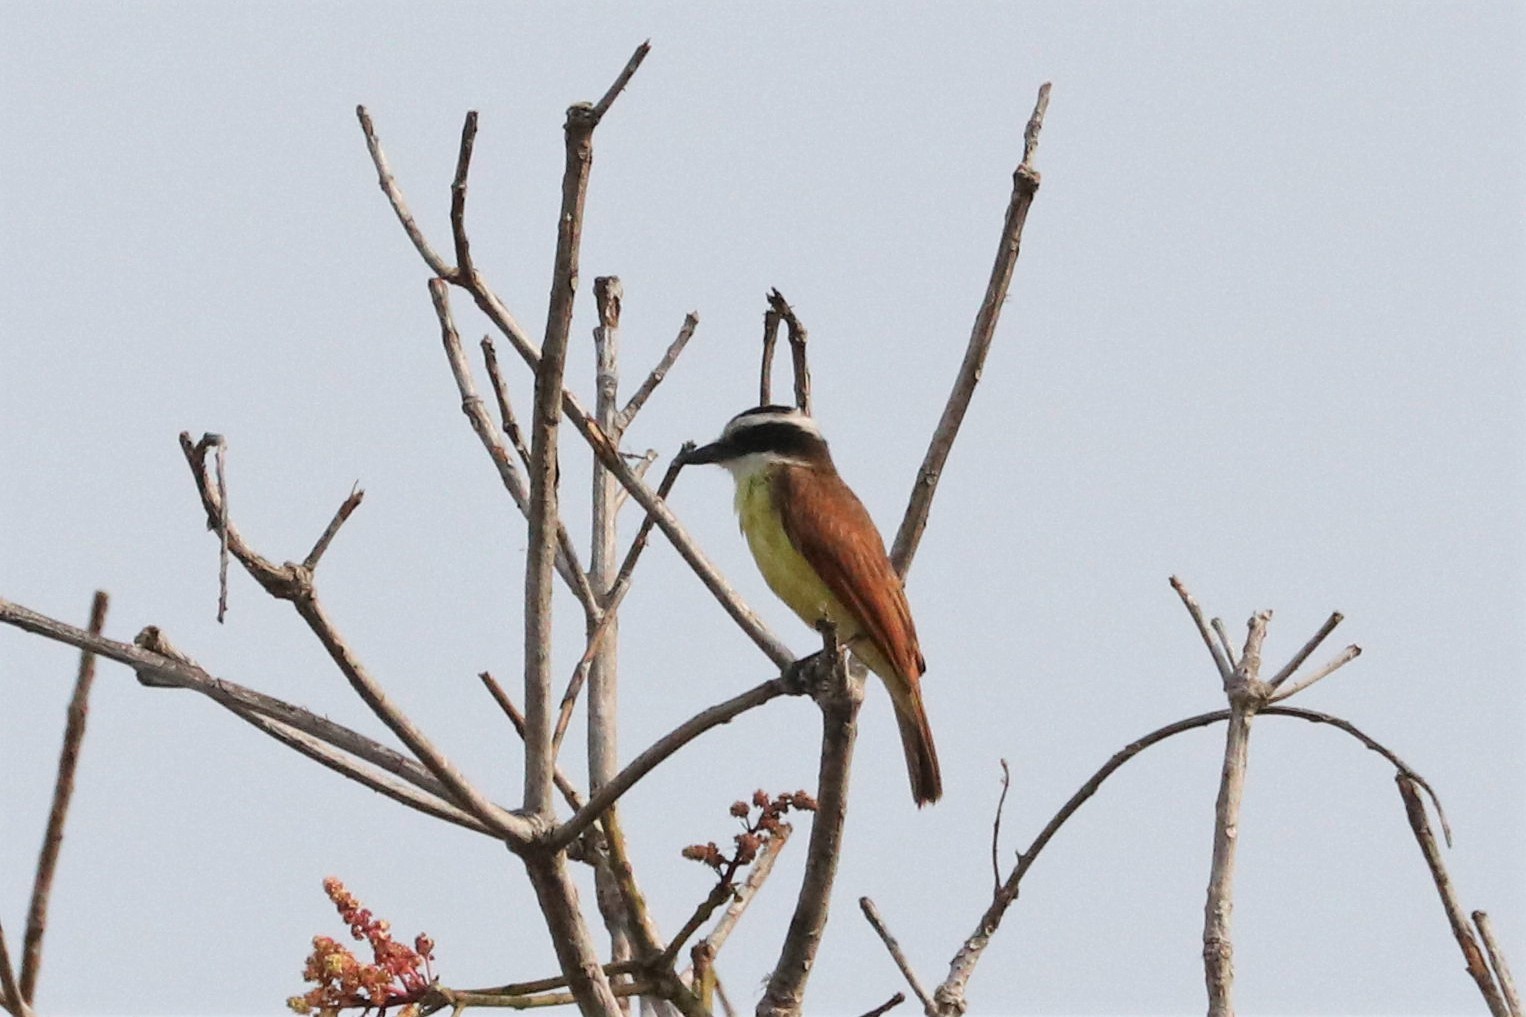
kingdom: Animalia
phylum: Chordata
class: Aves
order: Passeriformes
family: Tyrannidae
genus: Pitangus
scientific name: Pitangus sulphuratus
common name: Great kiskadee
